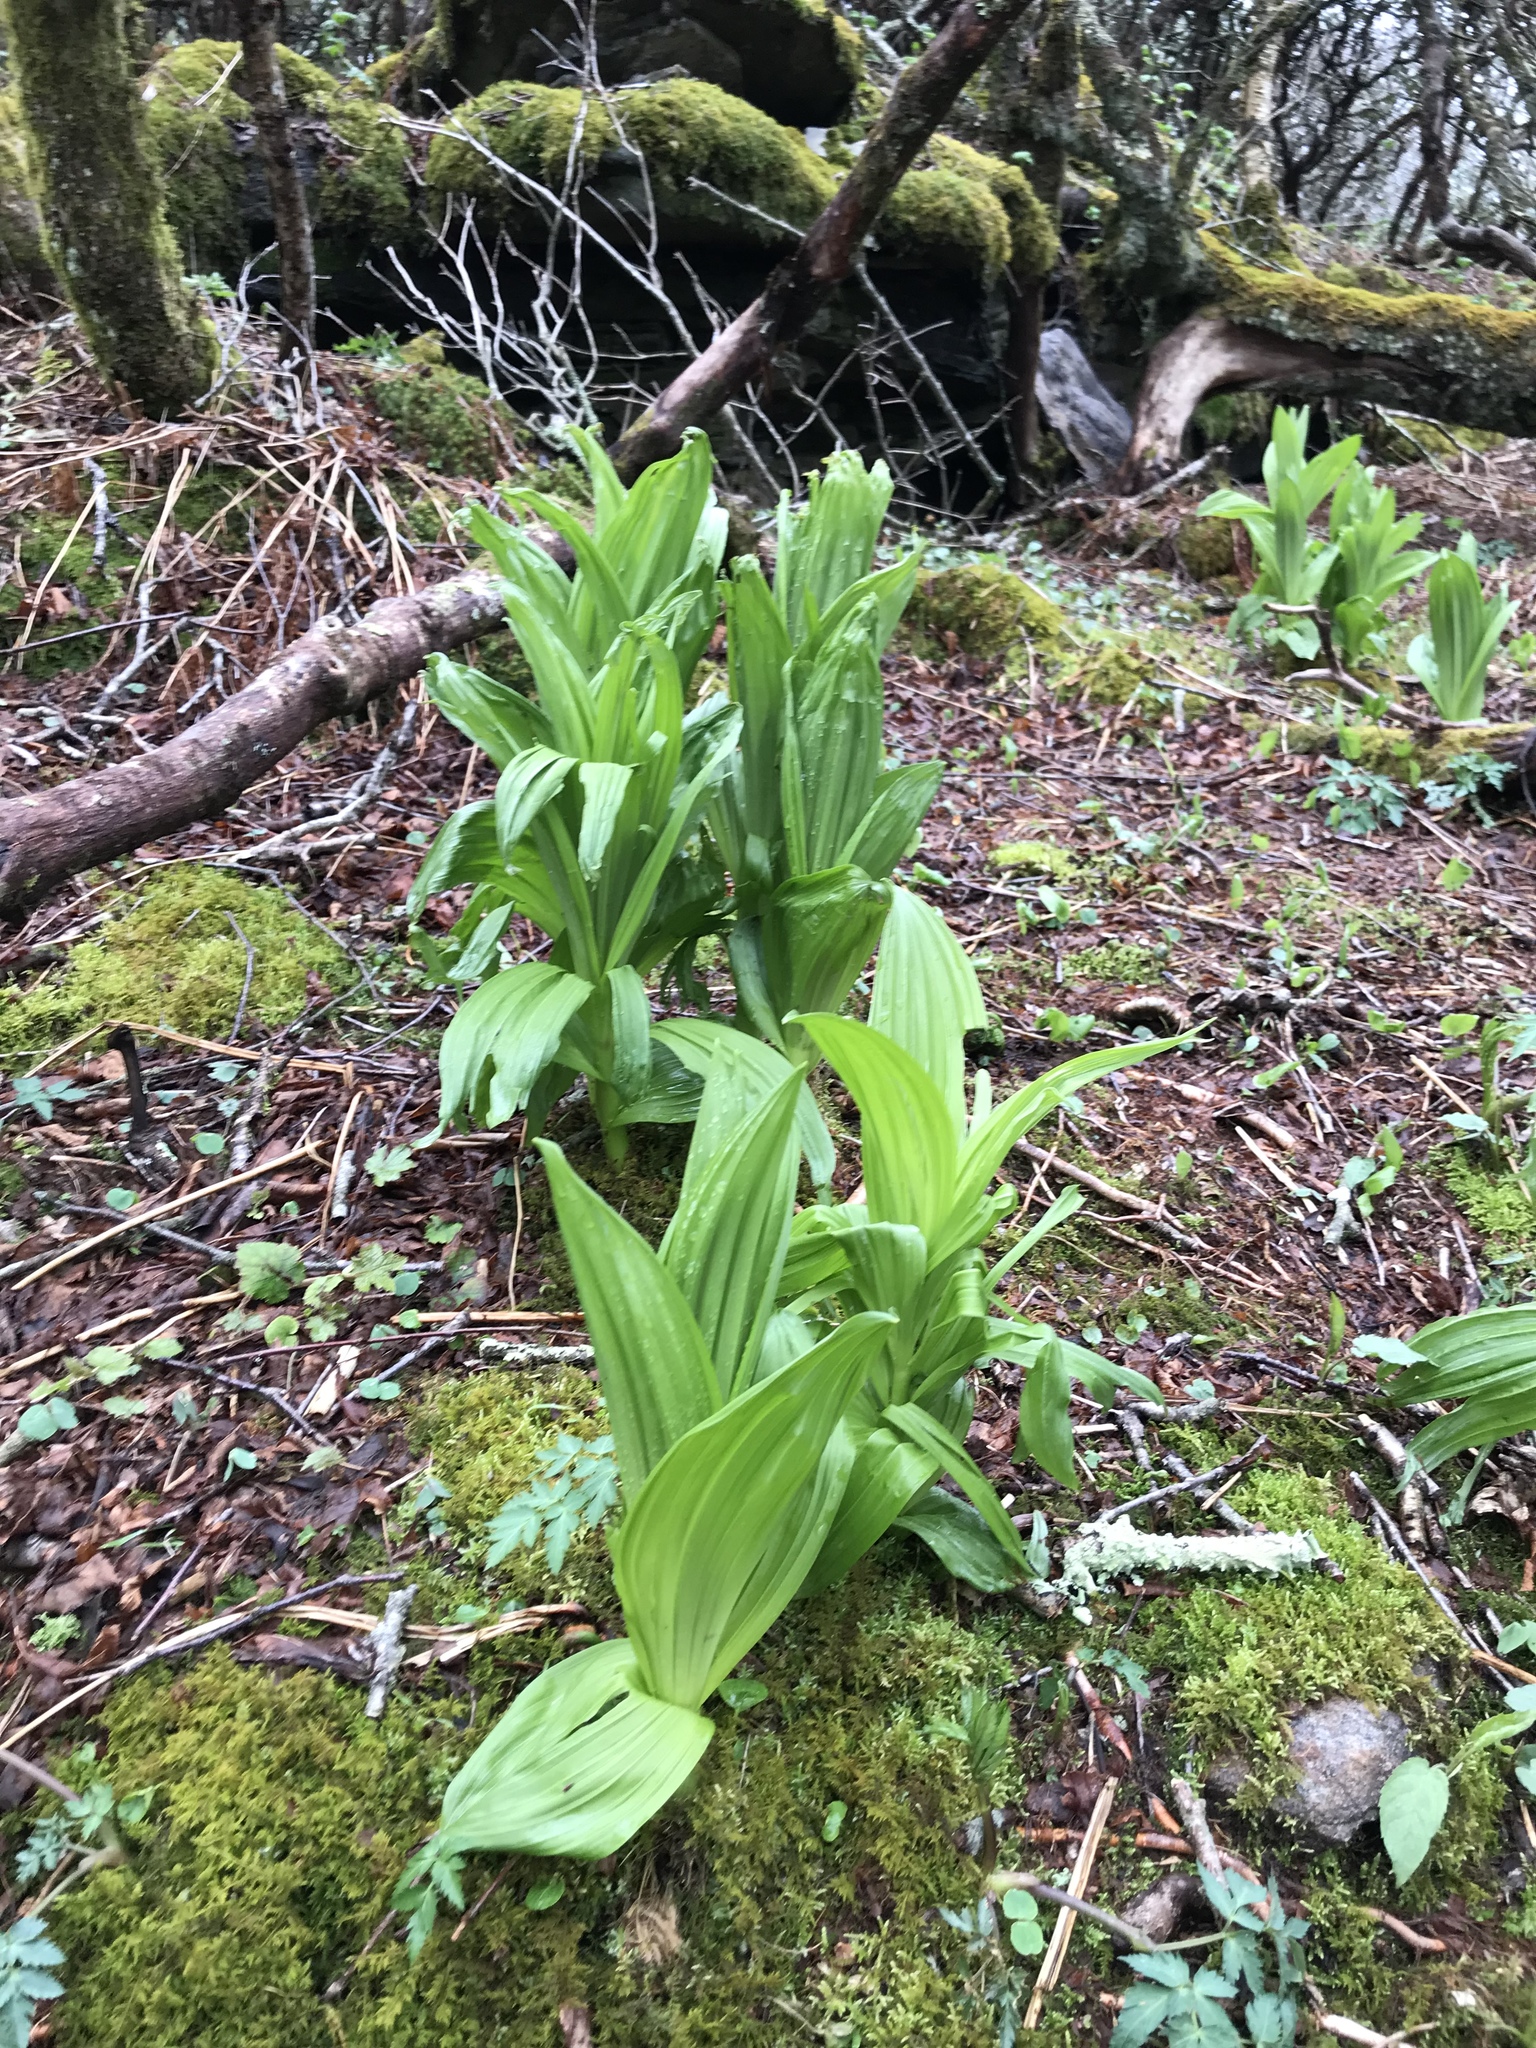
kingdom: Plantae
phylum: Tracheophyta
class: Liliopsida
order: Liliales
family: Melanthiaceae
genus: Veratrum
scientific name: Veratrum viride
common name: American false hellebore
